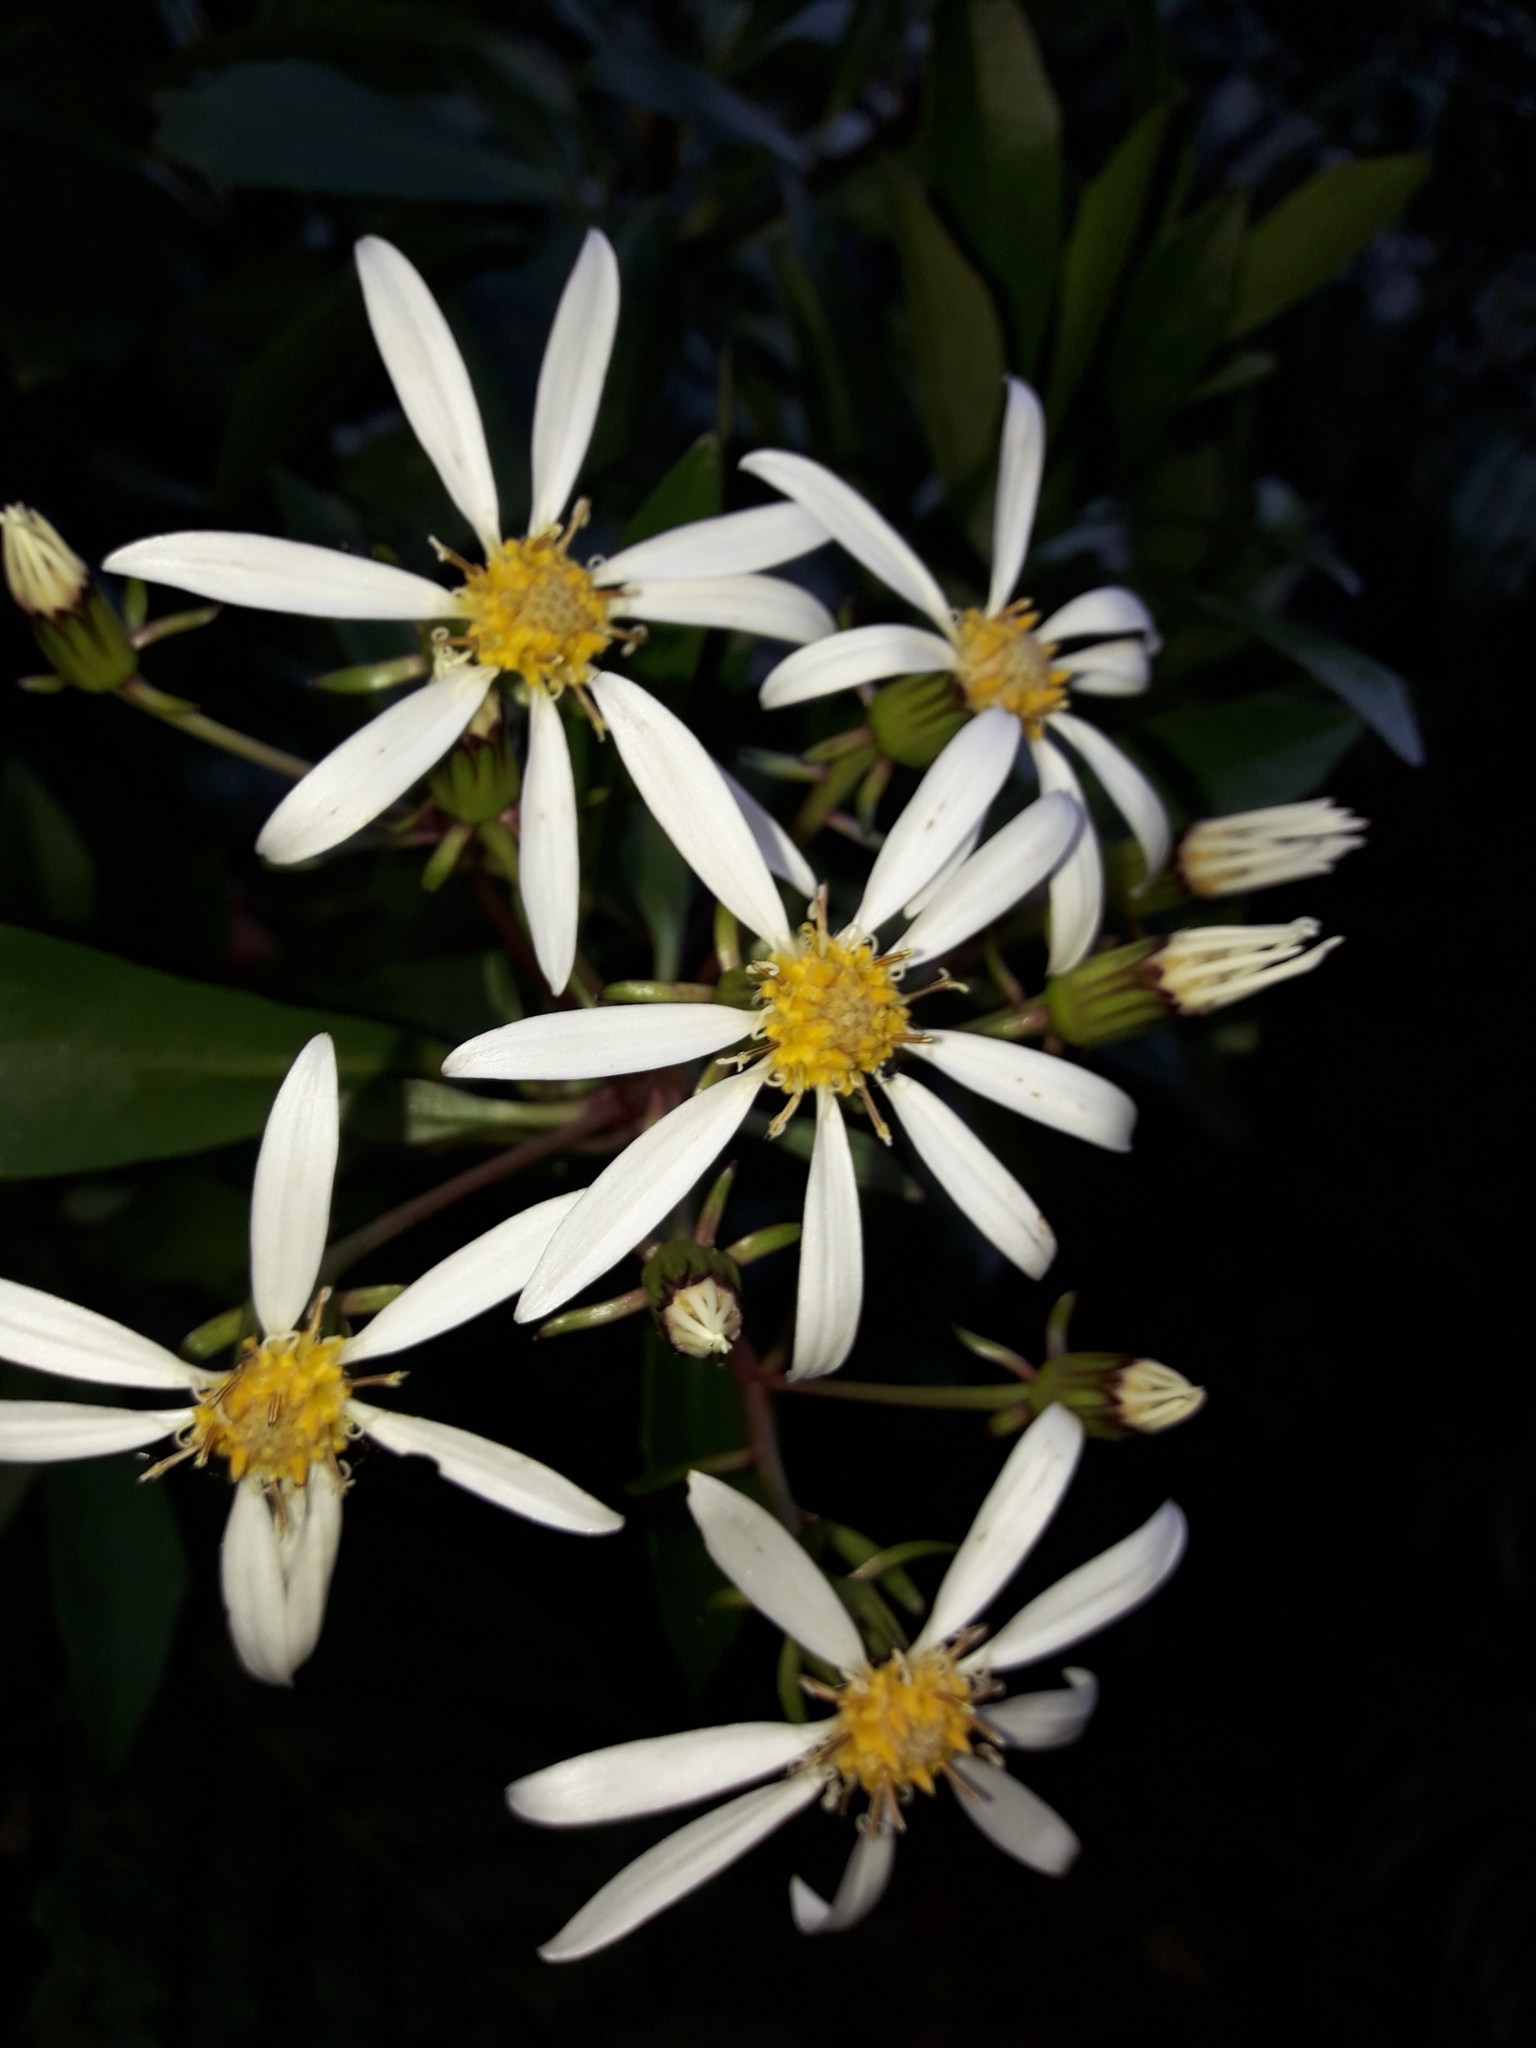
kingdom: Plantae
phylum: Tracheophyta
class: Magnoliopsida
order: Asterales
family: Asteraceae
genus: Brachyglottis
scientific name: Brachyglottis kirkii
